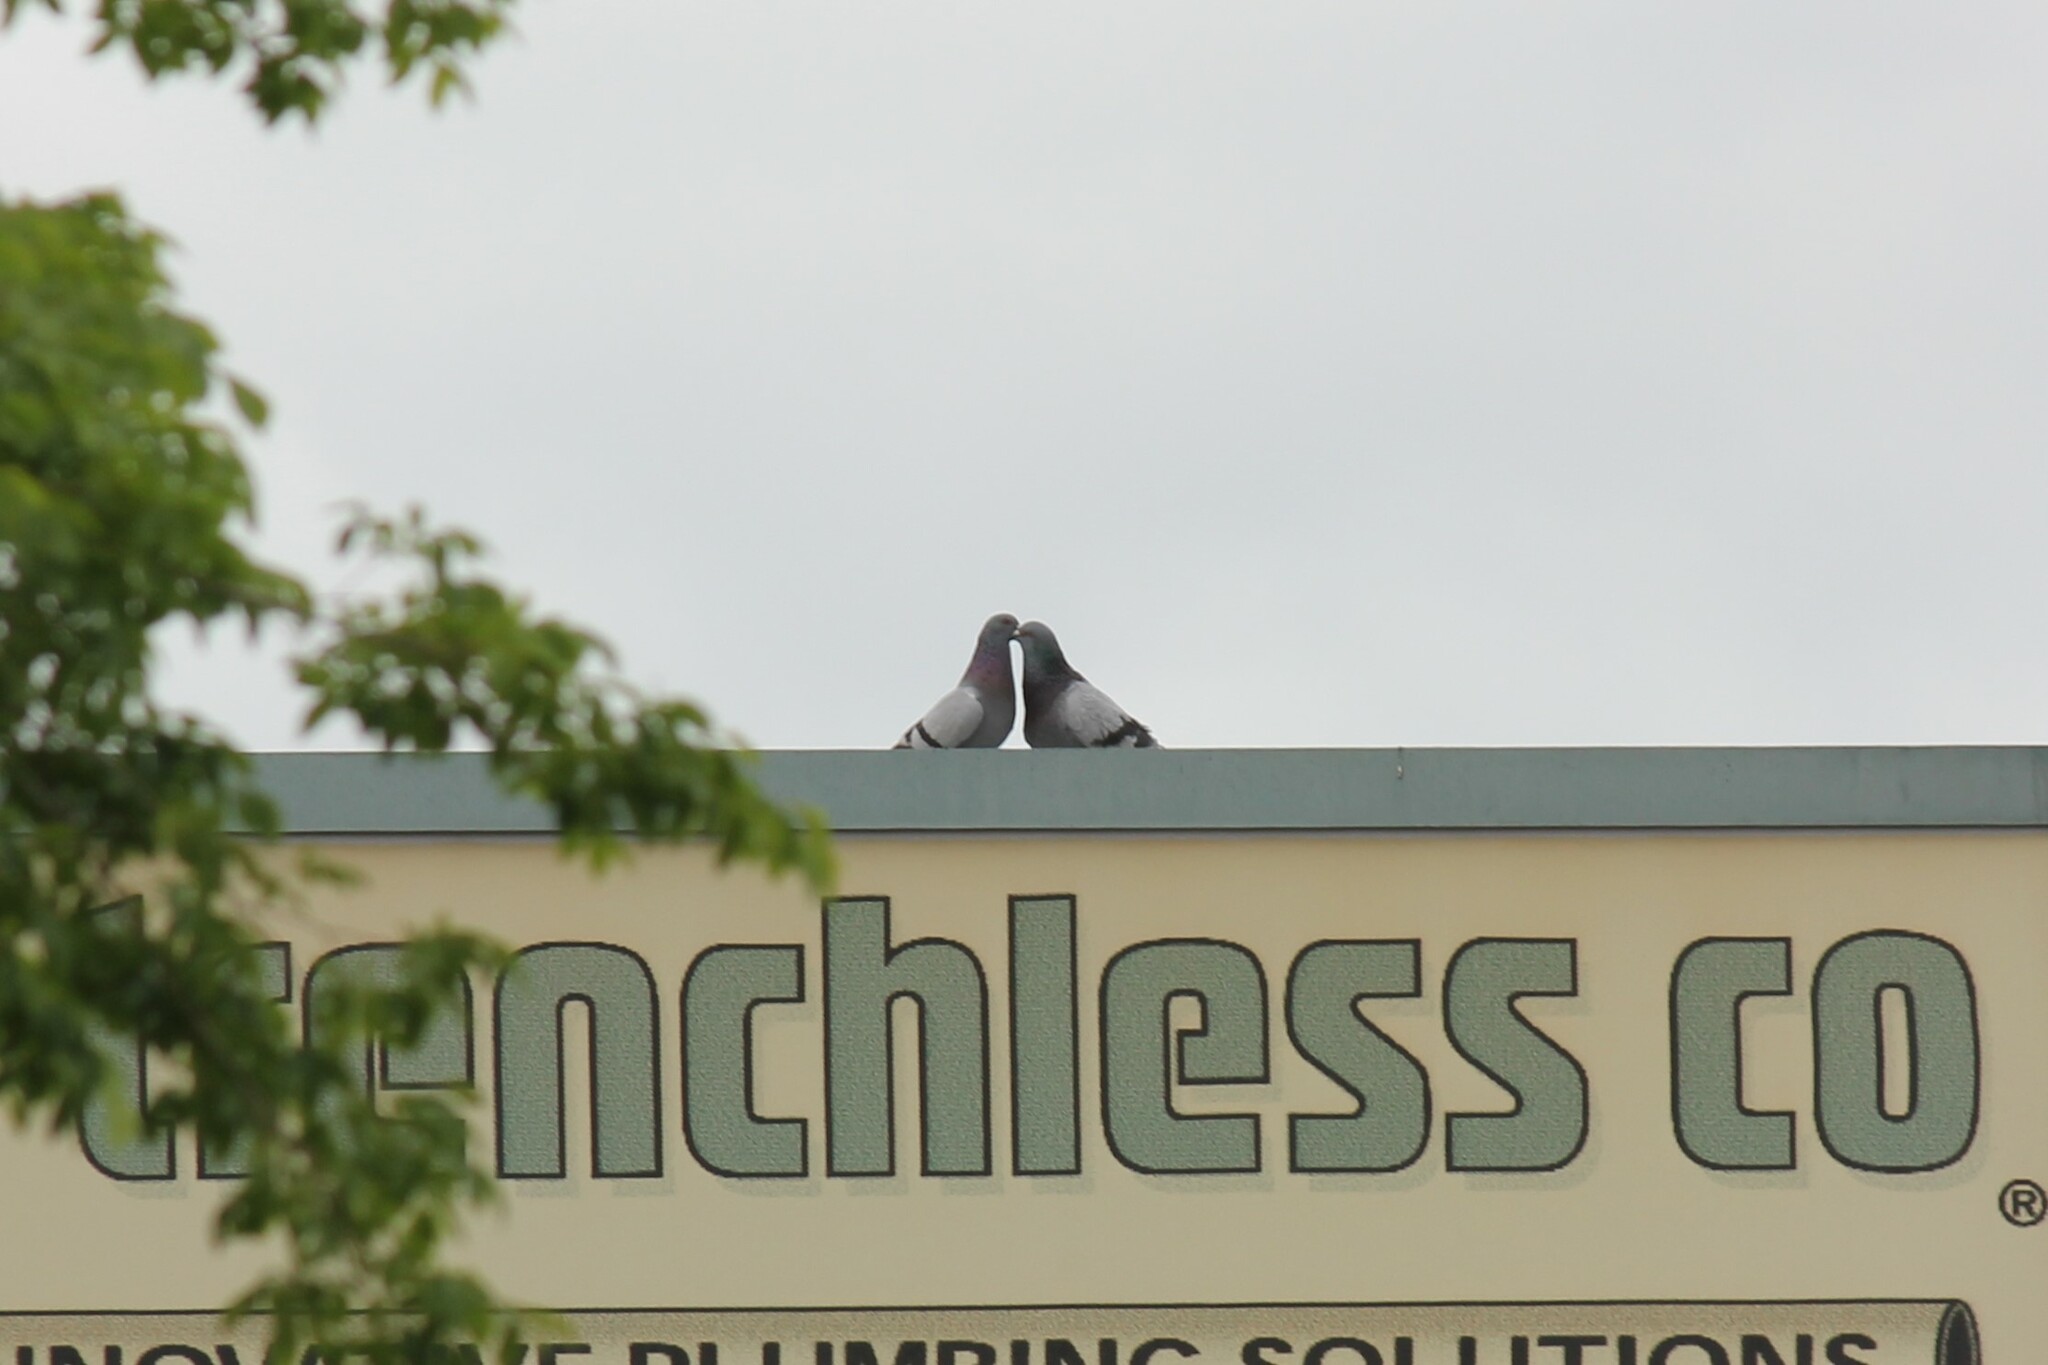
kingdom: Animalia
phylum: Chordata
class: Aves
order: Columbiformes
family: Columbidae
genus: Columba
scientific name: Columba livia
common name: Rock pigeon
